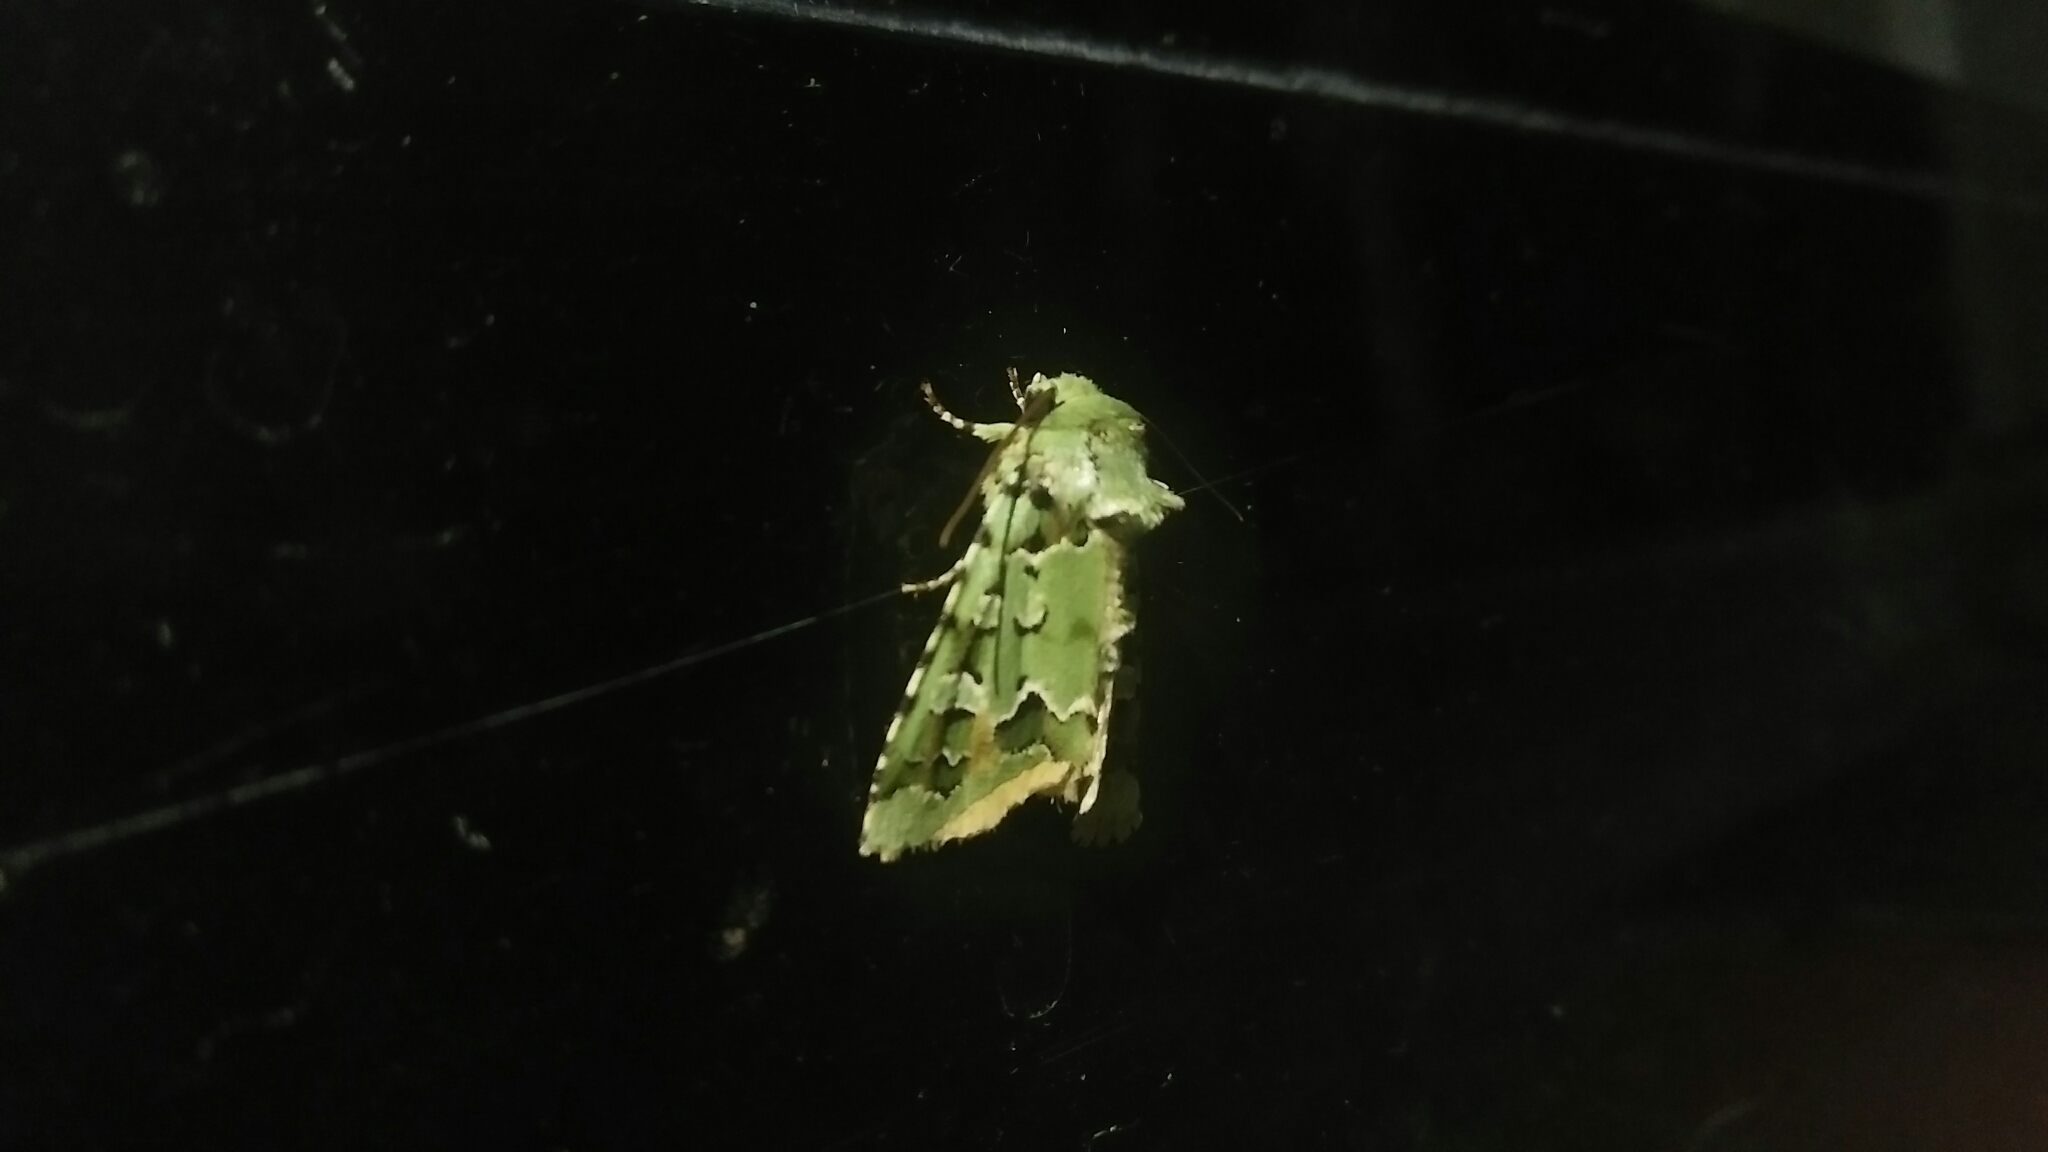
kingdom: Animalia
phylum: Arthropoda
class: Insecta
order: Lepidoptera
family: Noctuidae
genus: Daseochaeta
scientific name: Daseochaeta pulchra
